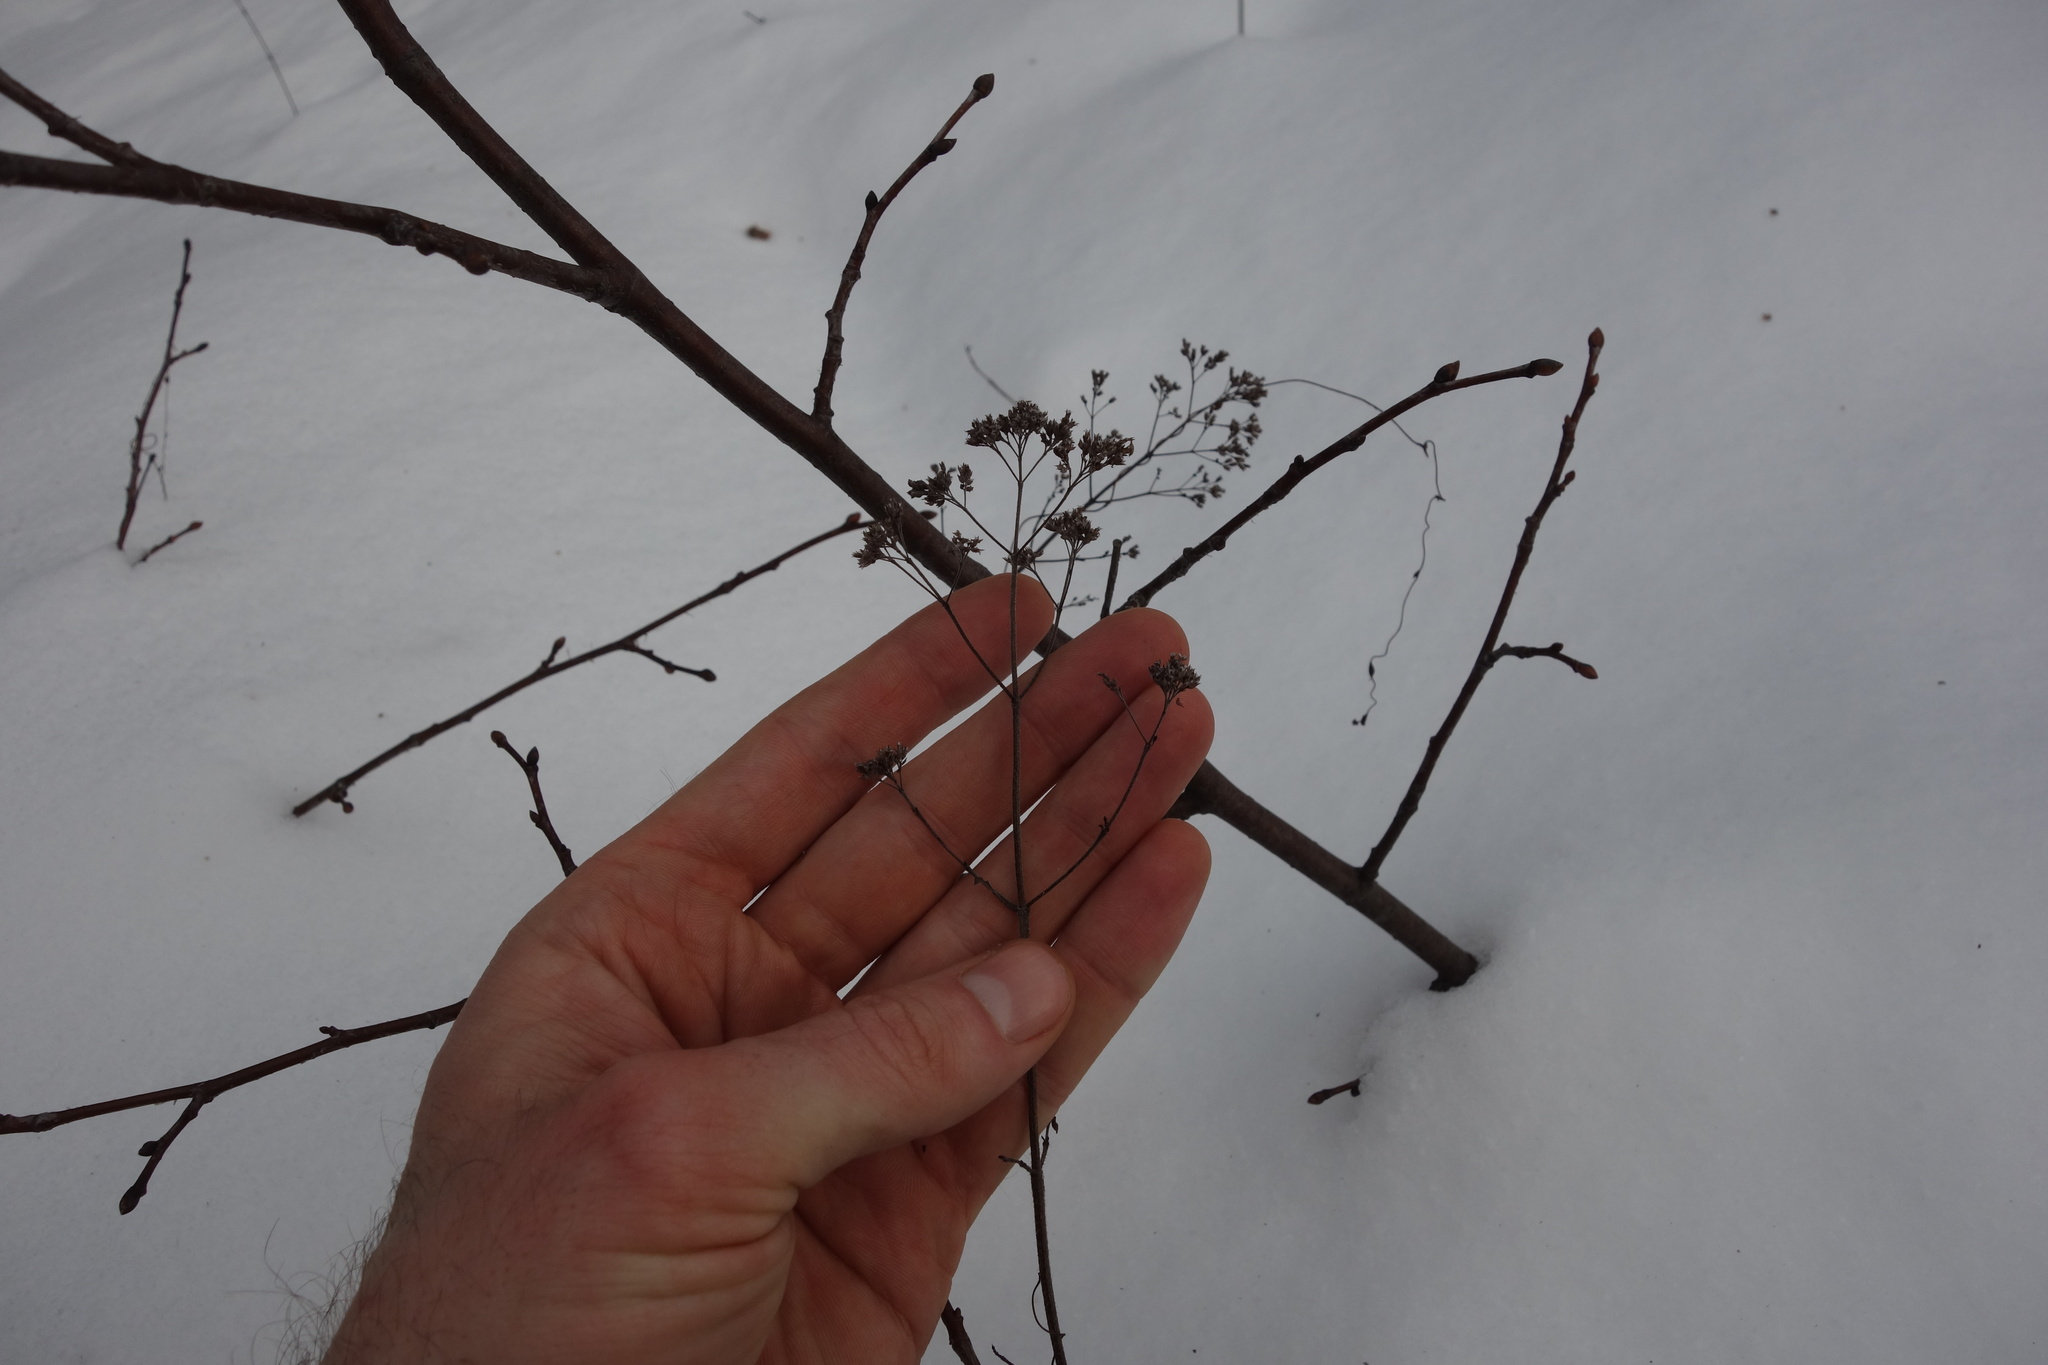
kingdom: Plantae
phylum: Tracheophyta
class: Magnoliopsida
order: Lamiales
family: Lamiaceae
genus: Origanum
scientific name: Origanum vulgare
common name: Wild marjoram
